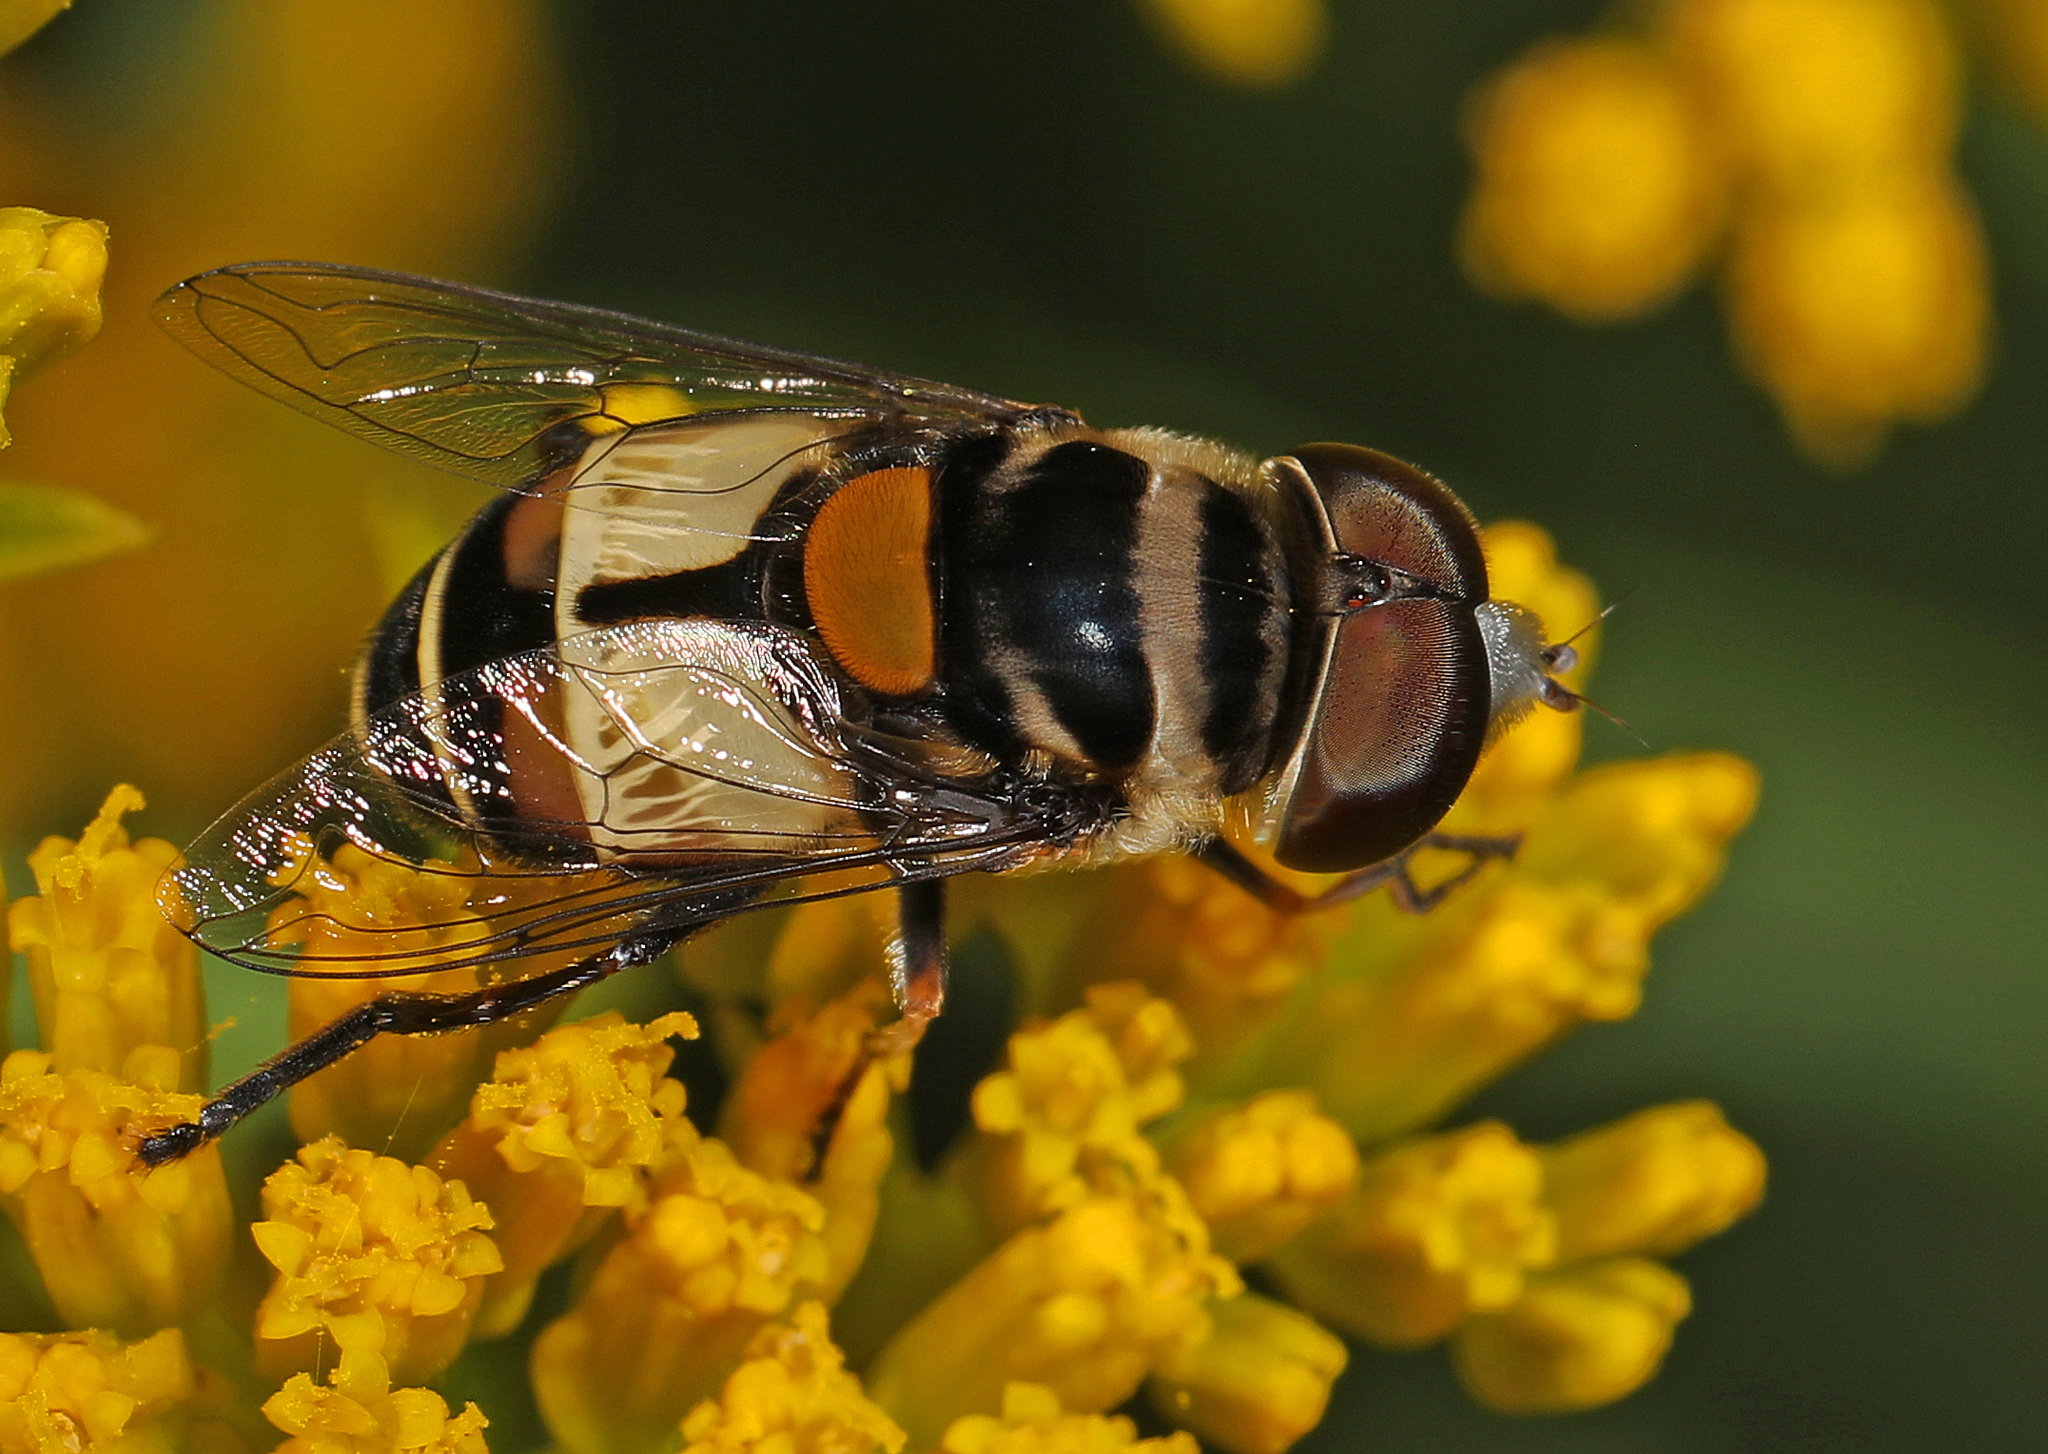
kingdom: Animalia
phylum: Arthropoda
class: Insecta
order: Diptera
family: Syrphidae
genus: Palpada
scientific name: Palpada albifrons
